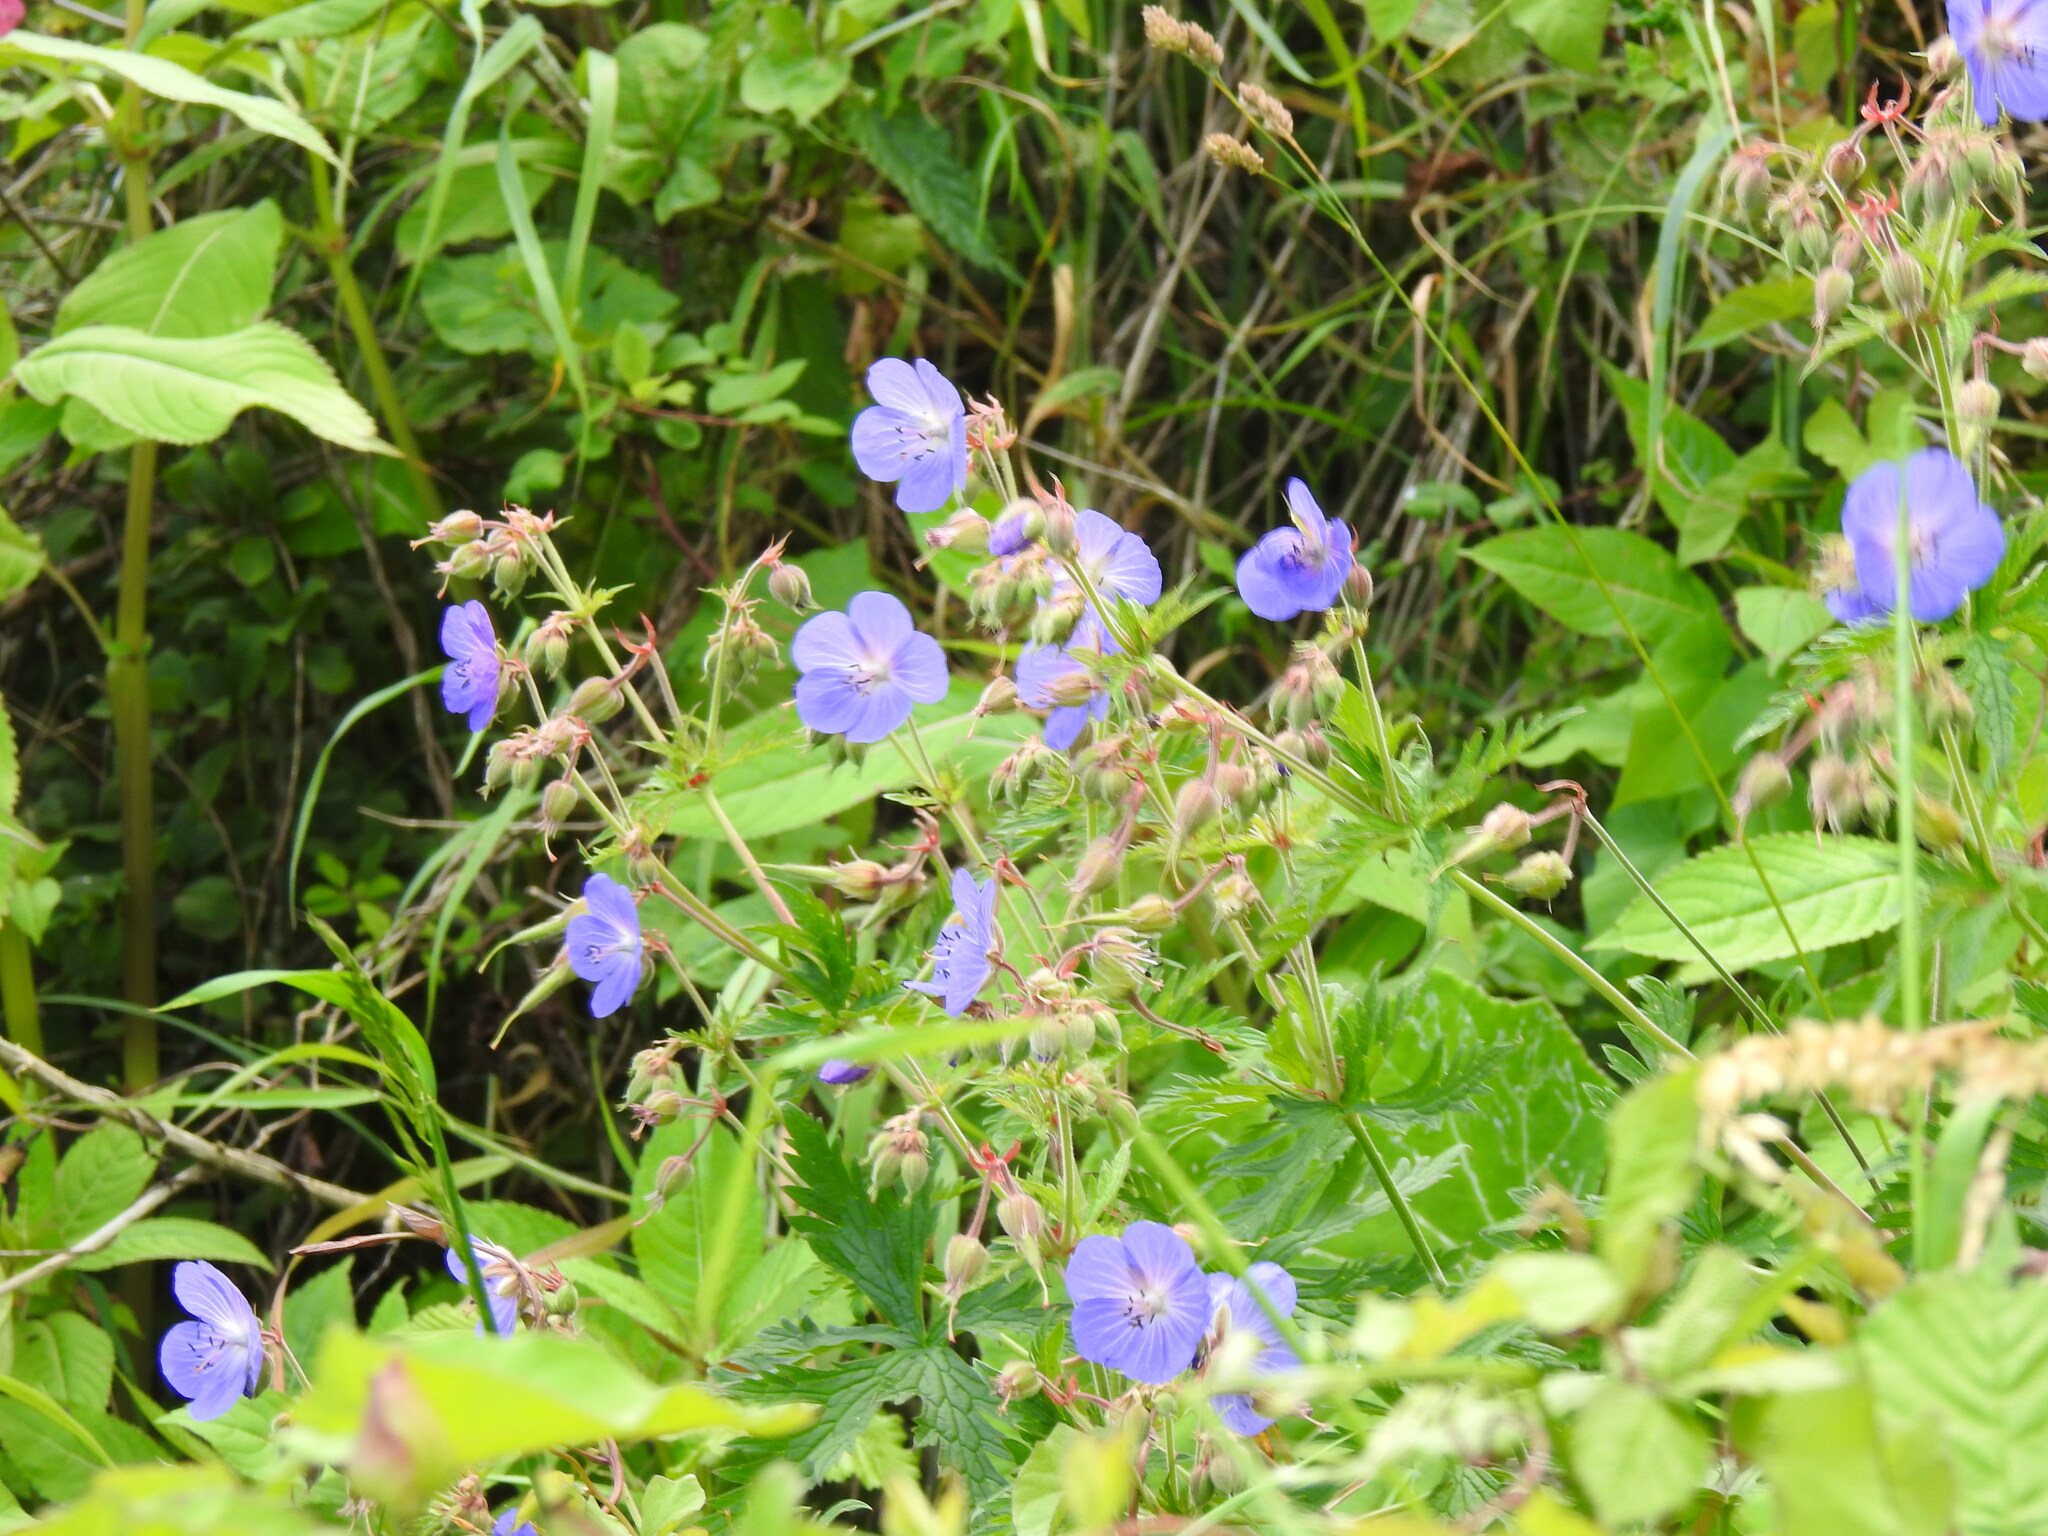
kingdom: Plantae
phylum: Tracheophyta
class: Magnoliopsida
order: Geraniales
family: Geraniaceae
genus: Geranium
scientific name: Geranium pratense
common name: Meadow crane's-bill
